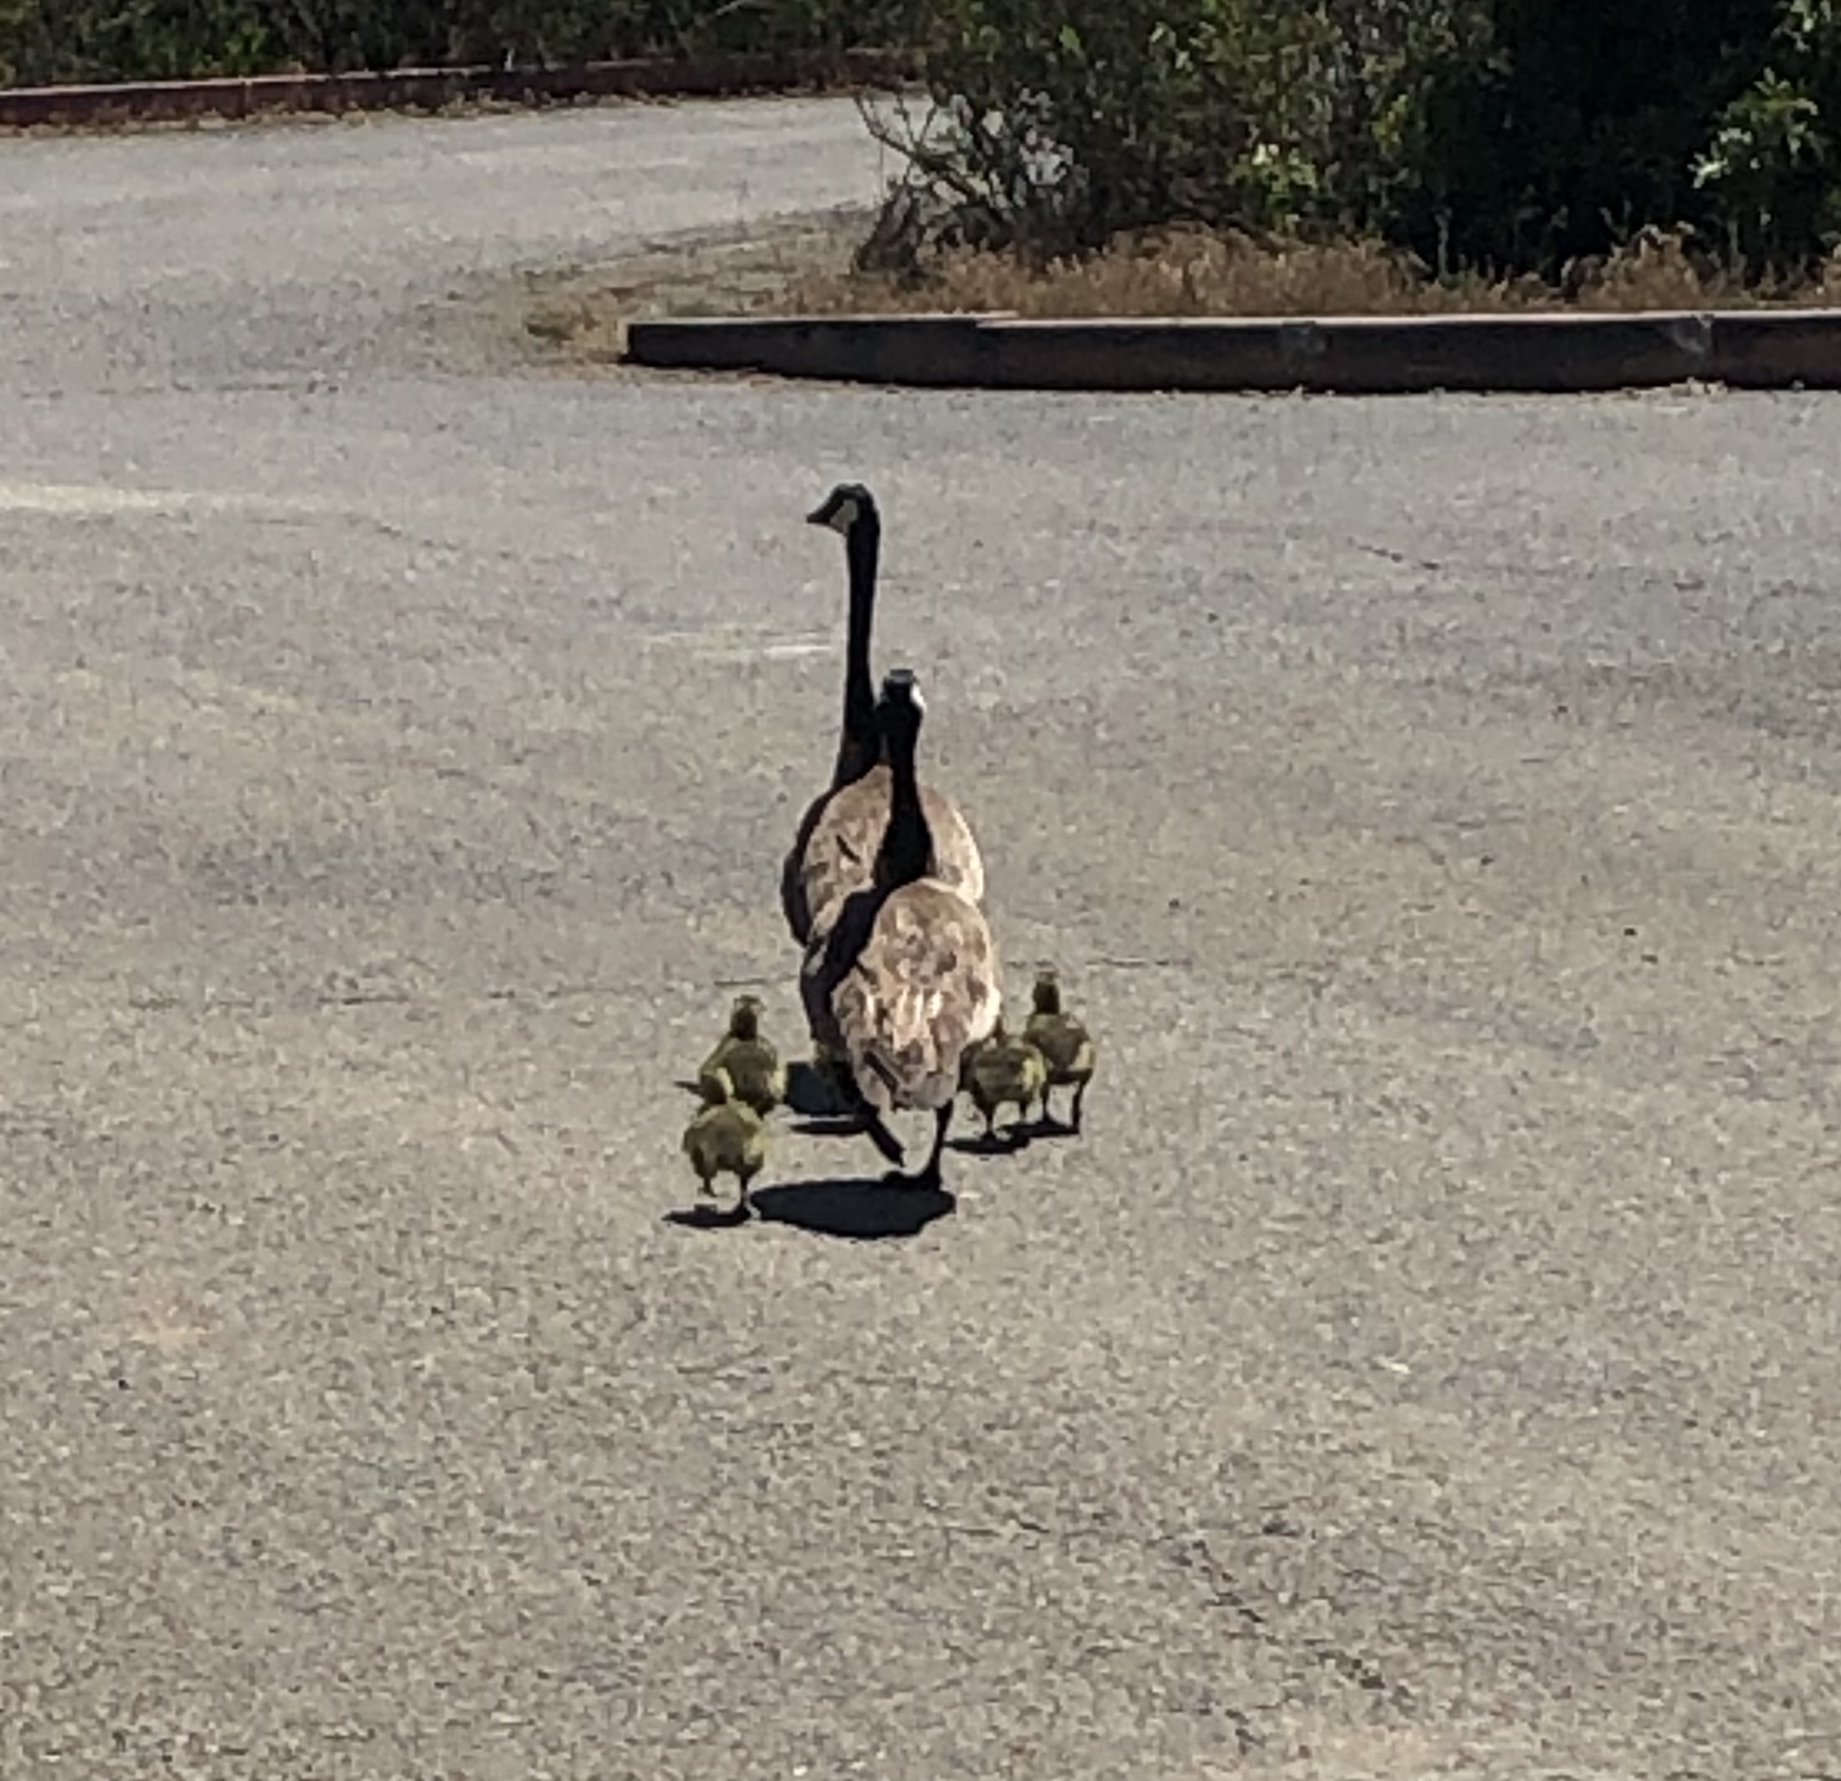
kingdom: Animalia
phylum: Chordata
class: Aves
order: Anseriformes
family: Anatidae
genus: Branta
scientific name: Branta canadensis
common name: Canada goose
